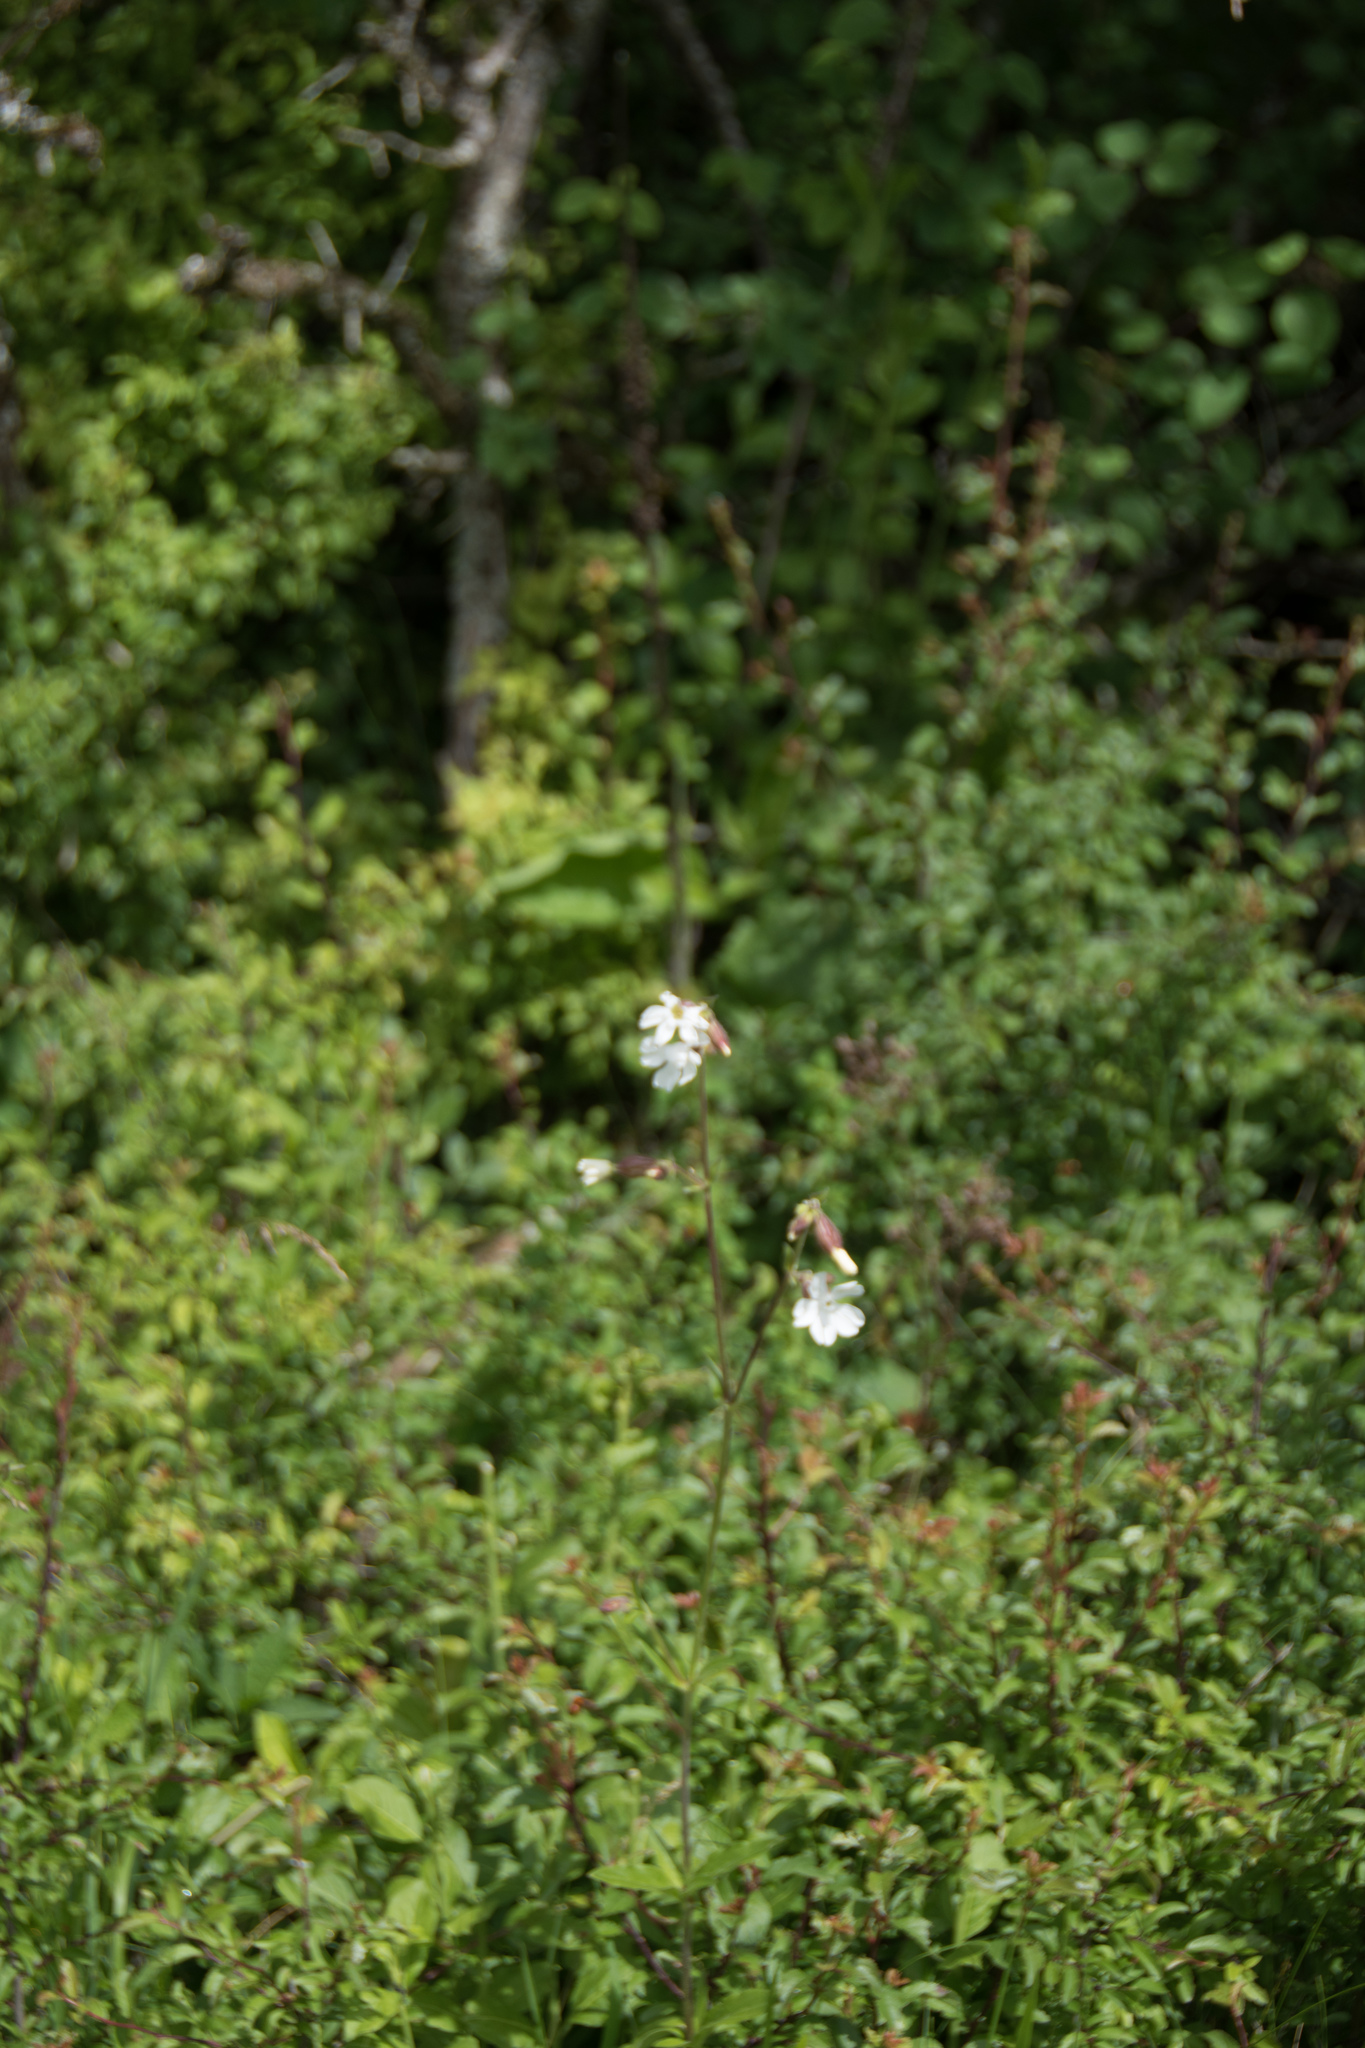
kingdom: Plantae
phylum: Tracheophyta
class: Magnoliopsida
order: Caryophyllales
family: Caryophyllaceae
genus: Silene
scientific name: Silene latifolia
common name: White campion
